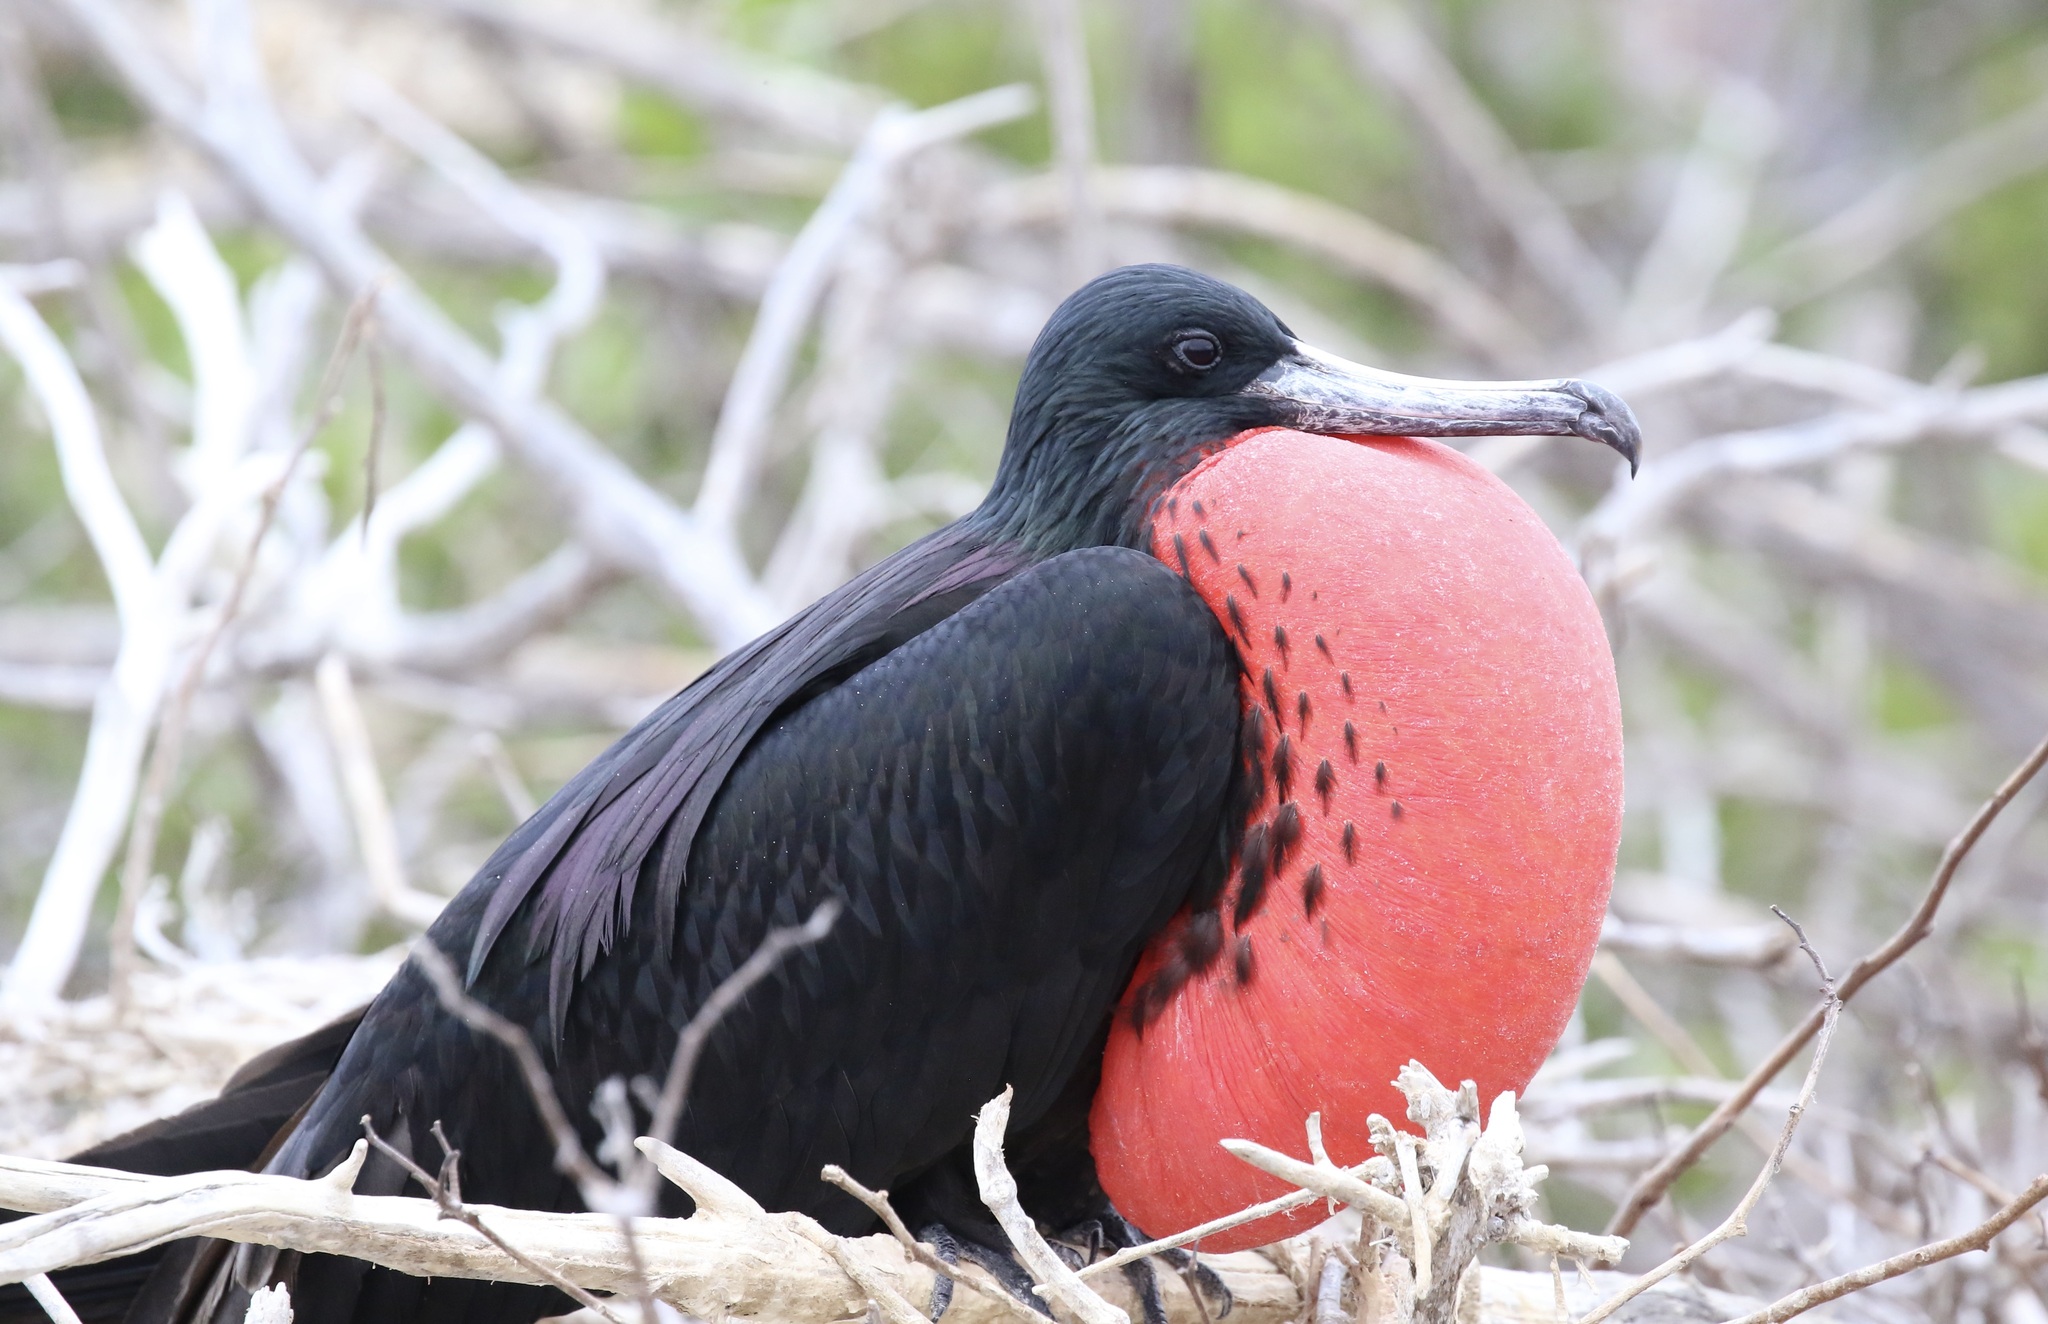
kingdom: Animalia
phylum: Chordata
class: Aves
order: Suliformes
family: Fregatidae
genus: Fregata
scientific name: Fregata magnificens
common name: Magnificent frigatebird
